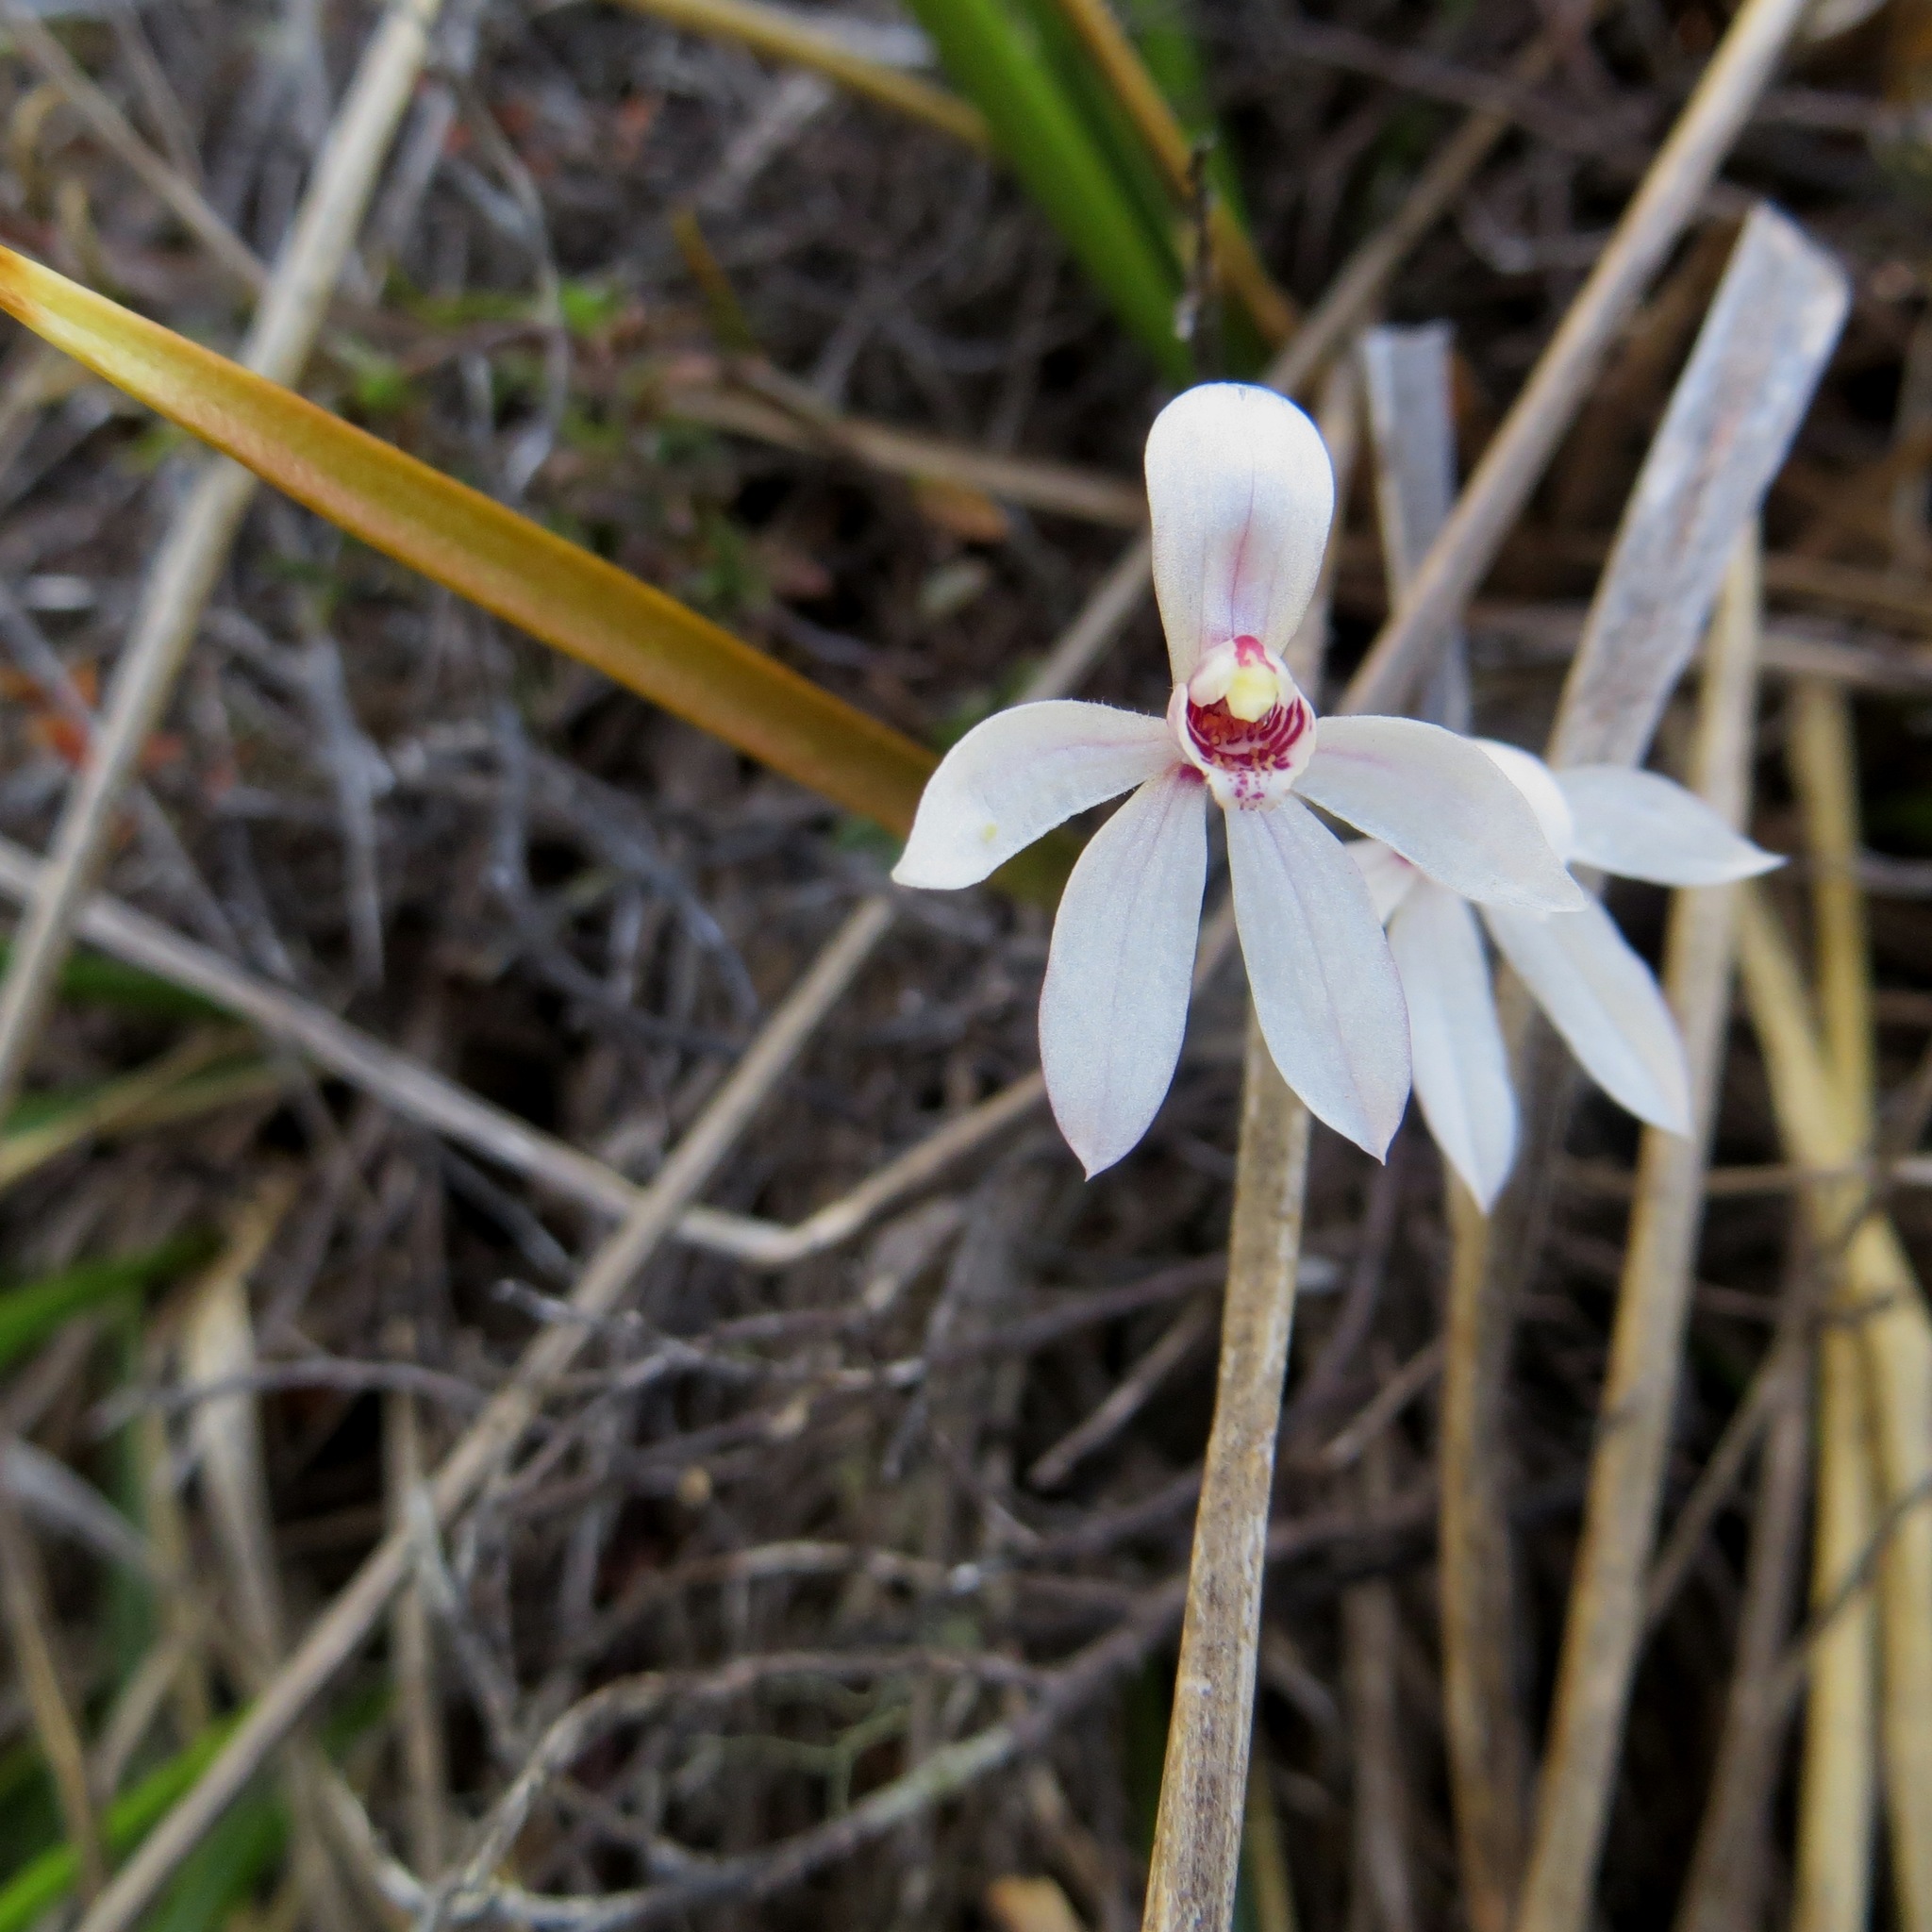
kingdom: Plantae
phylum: Tracheophyta
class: Liliopsida
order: Asparagales
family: Orchidaceae
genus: Caladenia
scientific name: Caladenia lyallii
